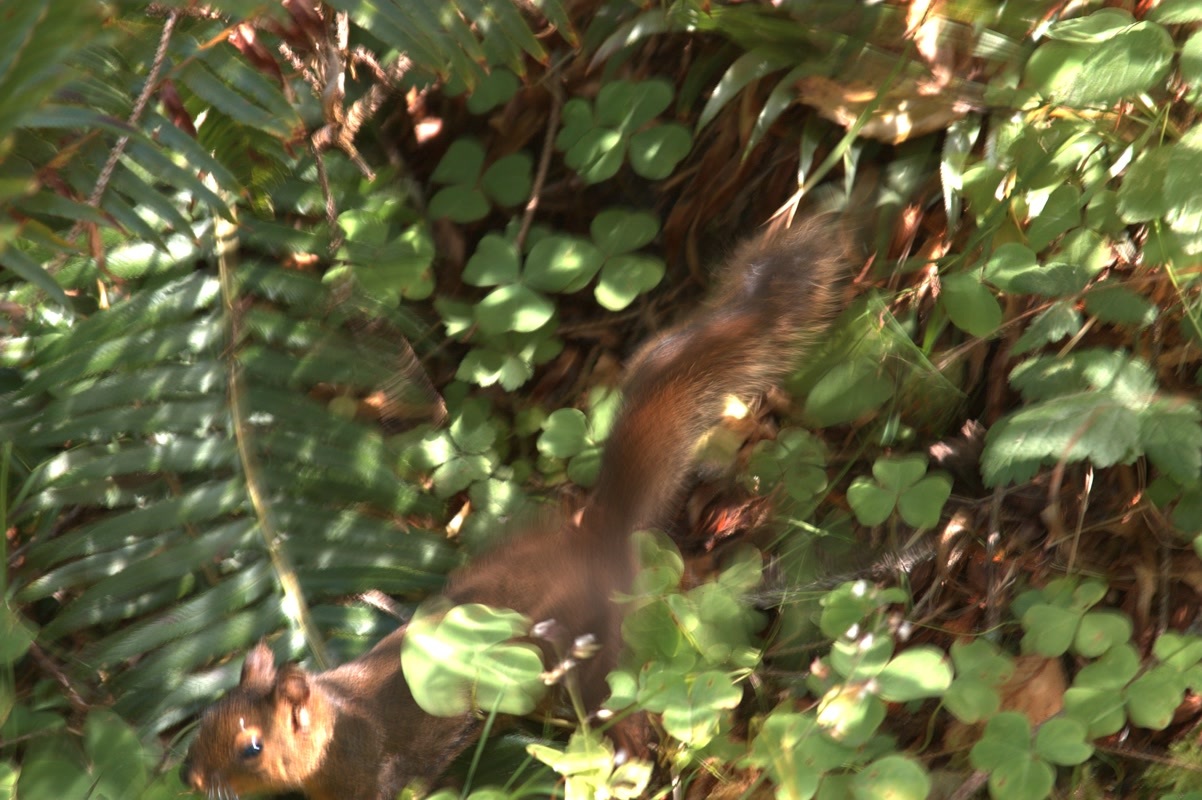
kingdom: Animalia
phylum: Chordata
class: Mammalia
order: Rodentia
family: Sciuridae
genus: Tamiasciurus
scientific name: Tamiasciurus douglasii
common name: Douglas's squirrel
